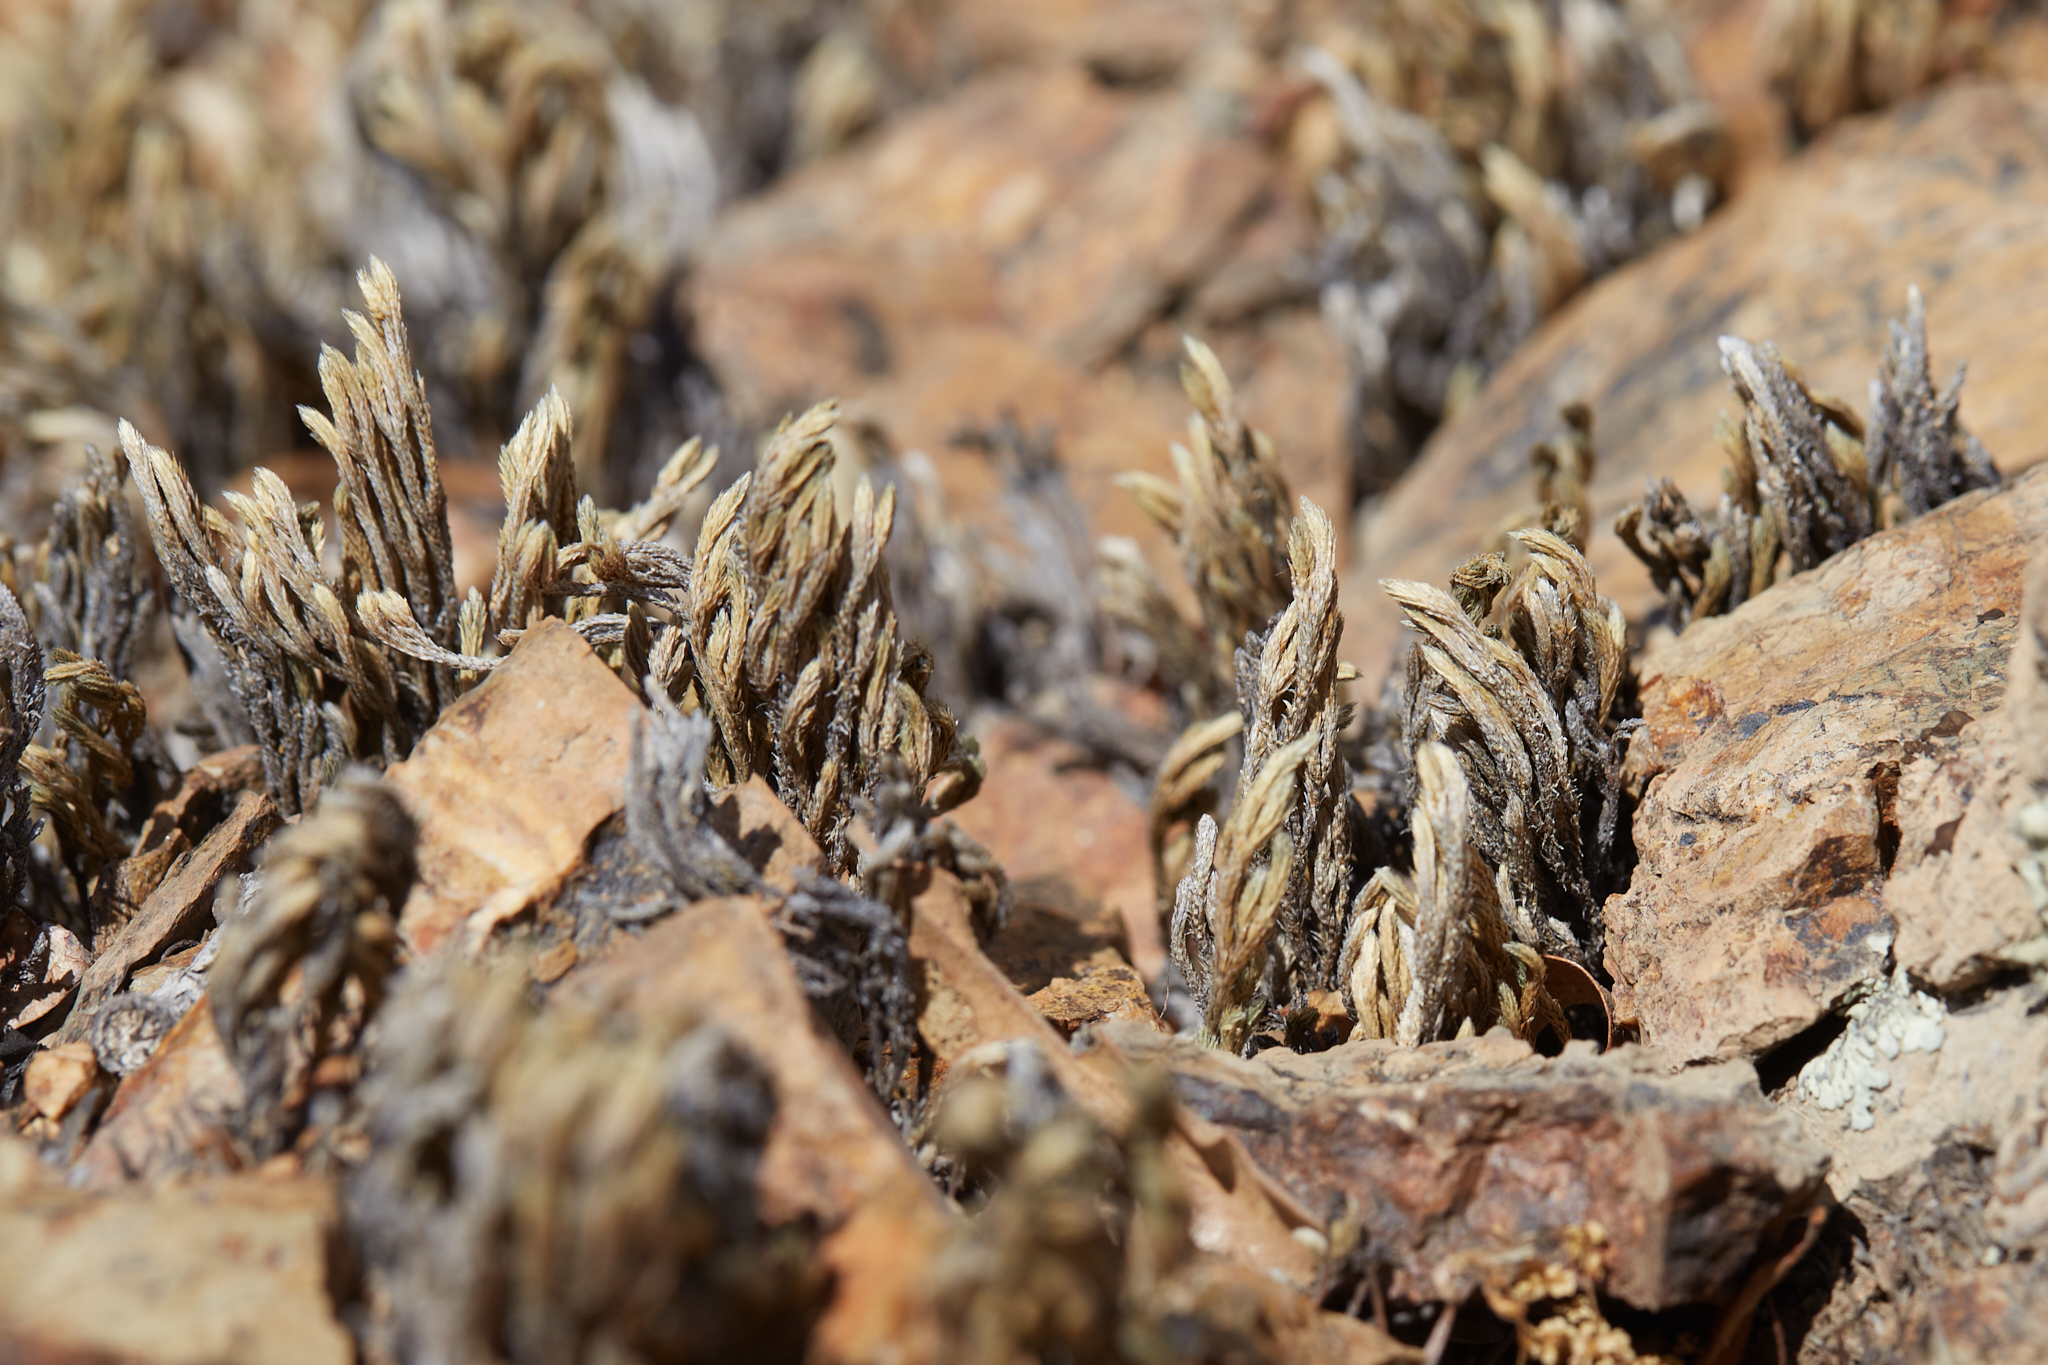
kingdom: Plantae
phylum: Tracheophyta
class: Lycopodiopsida
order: Selaginellales
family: Selaginellaceae
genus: Selaginella
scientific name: Selaginella bigelovii
